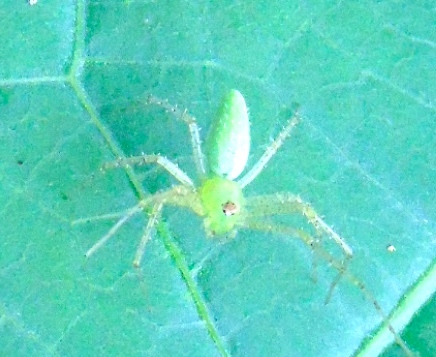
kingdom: Animalia
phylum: Arthropoda
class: Arachnida
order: Araneae
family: Oxyopidae
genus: Peucetia
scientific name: Peucetia viridans
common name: Lynx spiders
